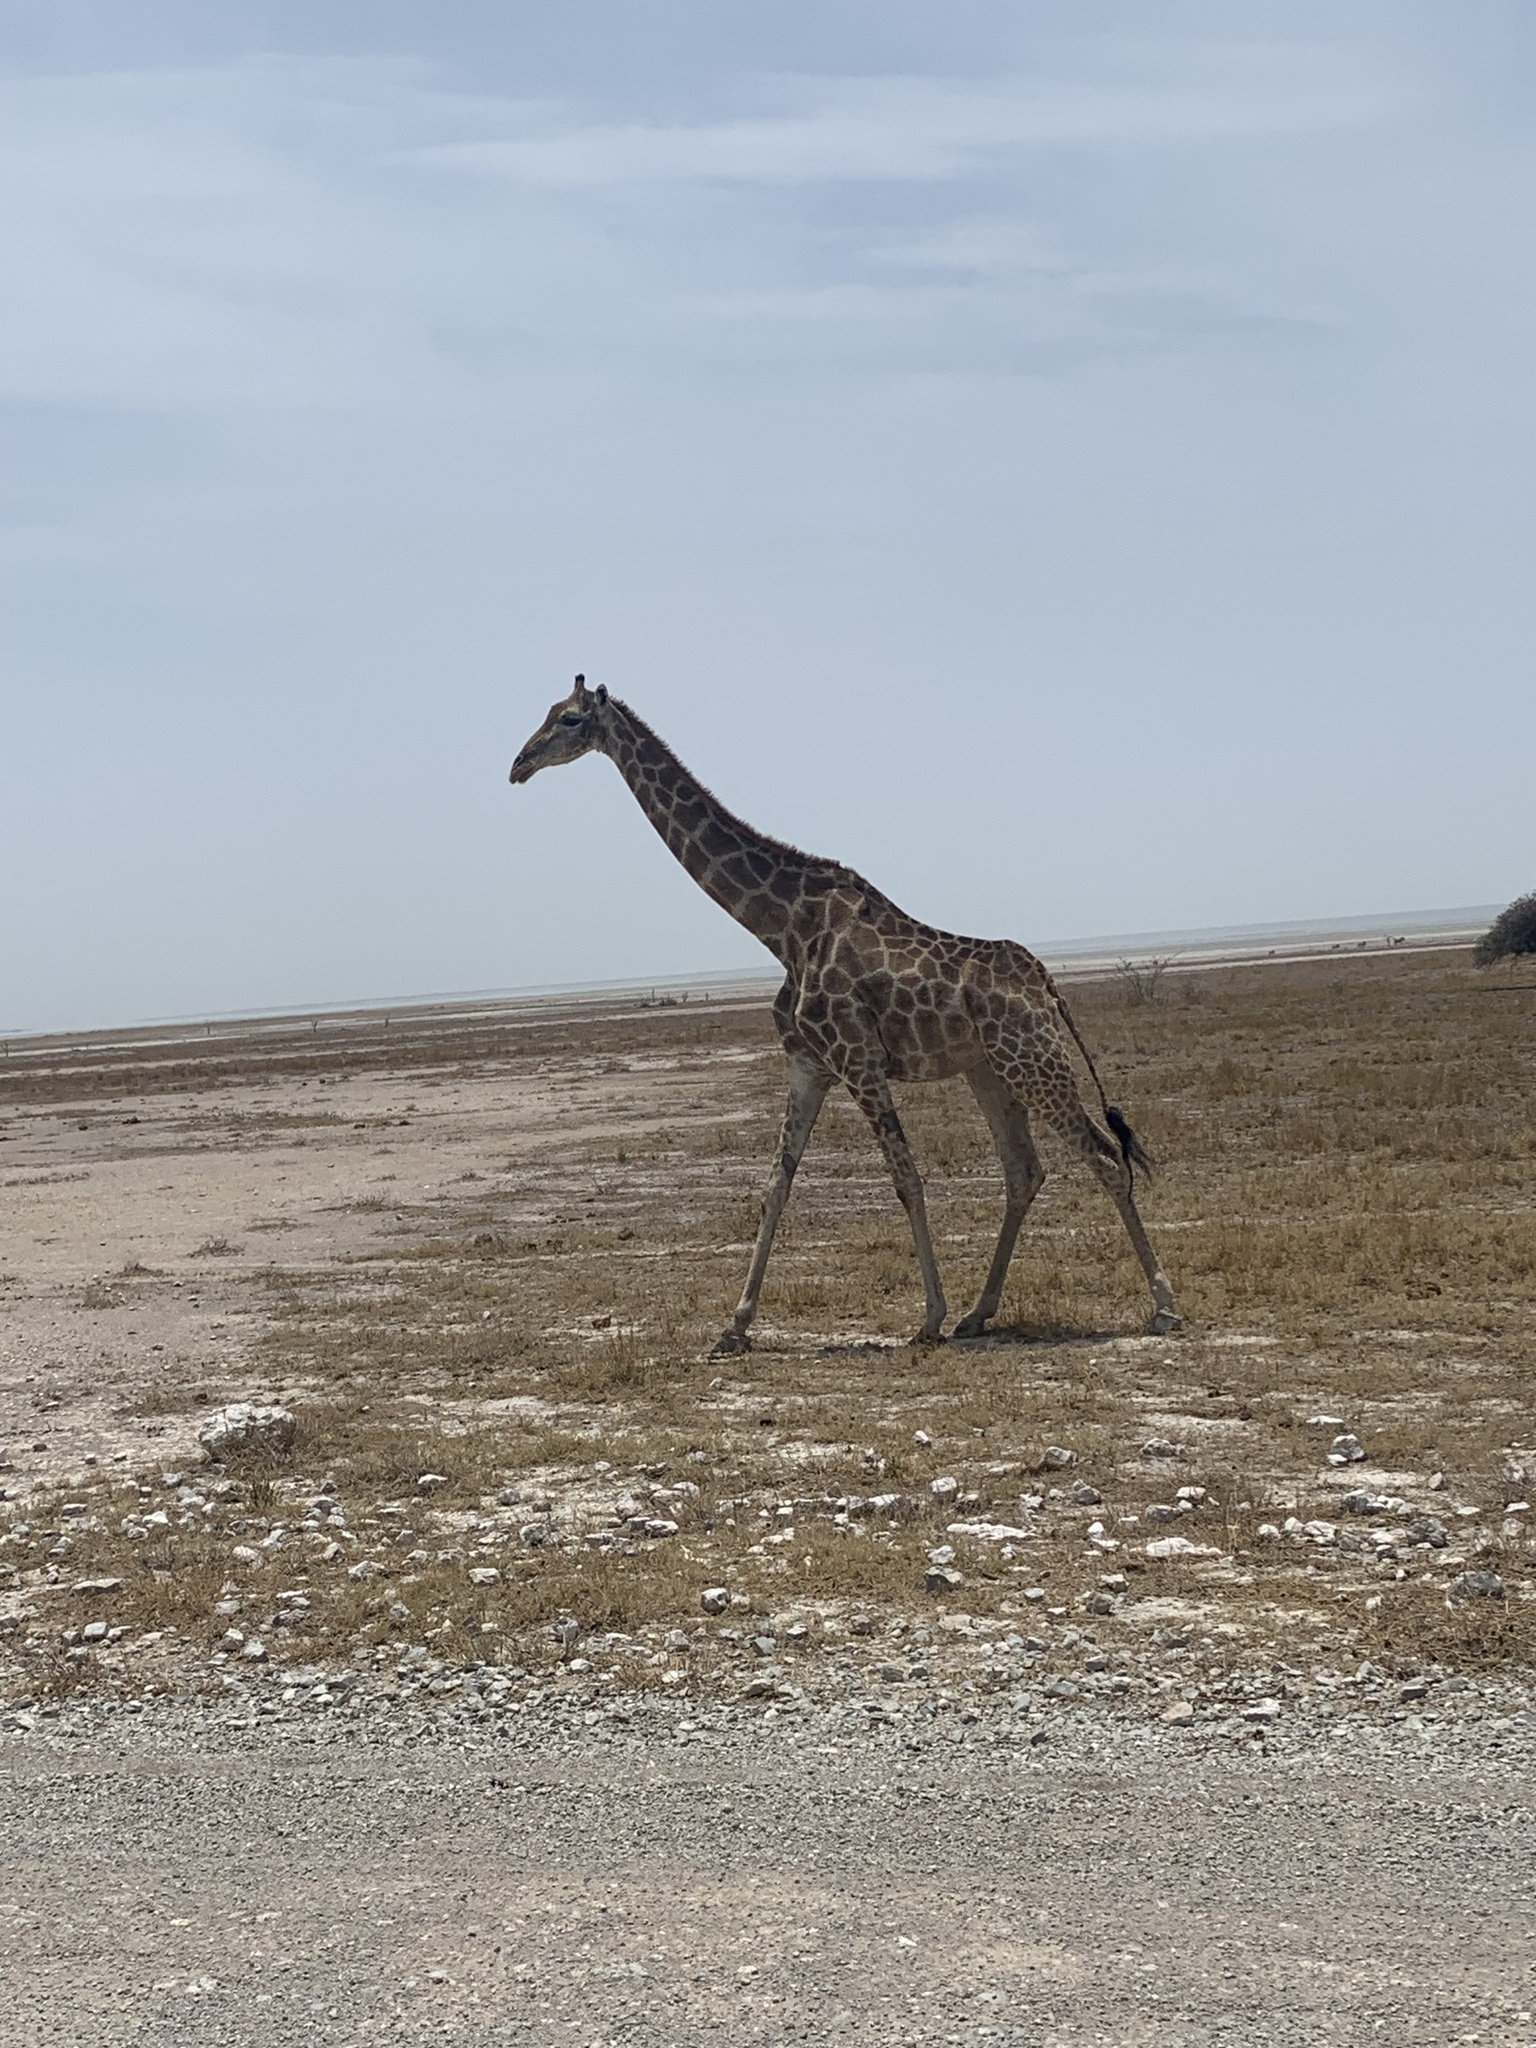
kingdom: Animalia
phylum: Chordata
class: Mammalia
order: Artiodactyla
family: Giraffidae
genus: Giraffa
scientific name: Giraffa giraffa
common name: Southern giraffe
